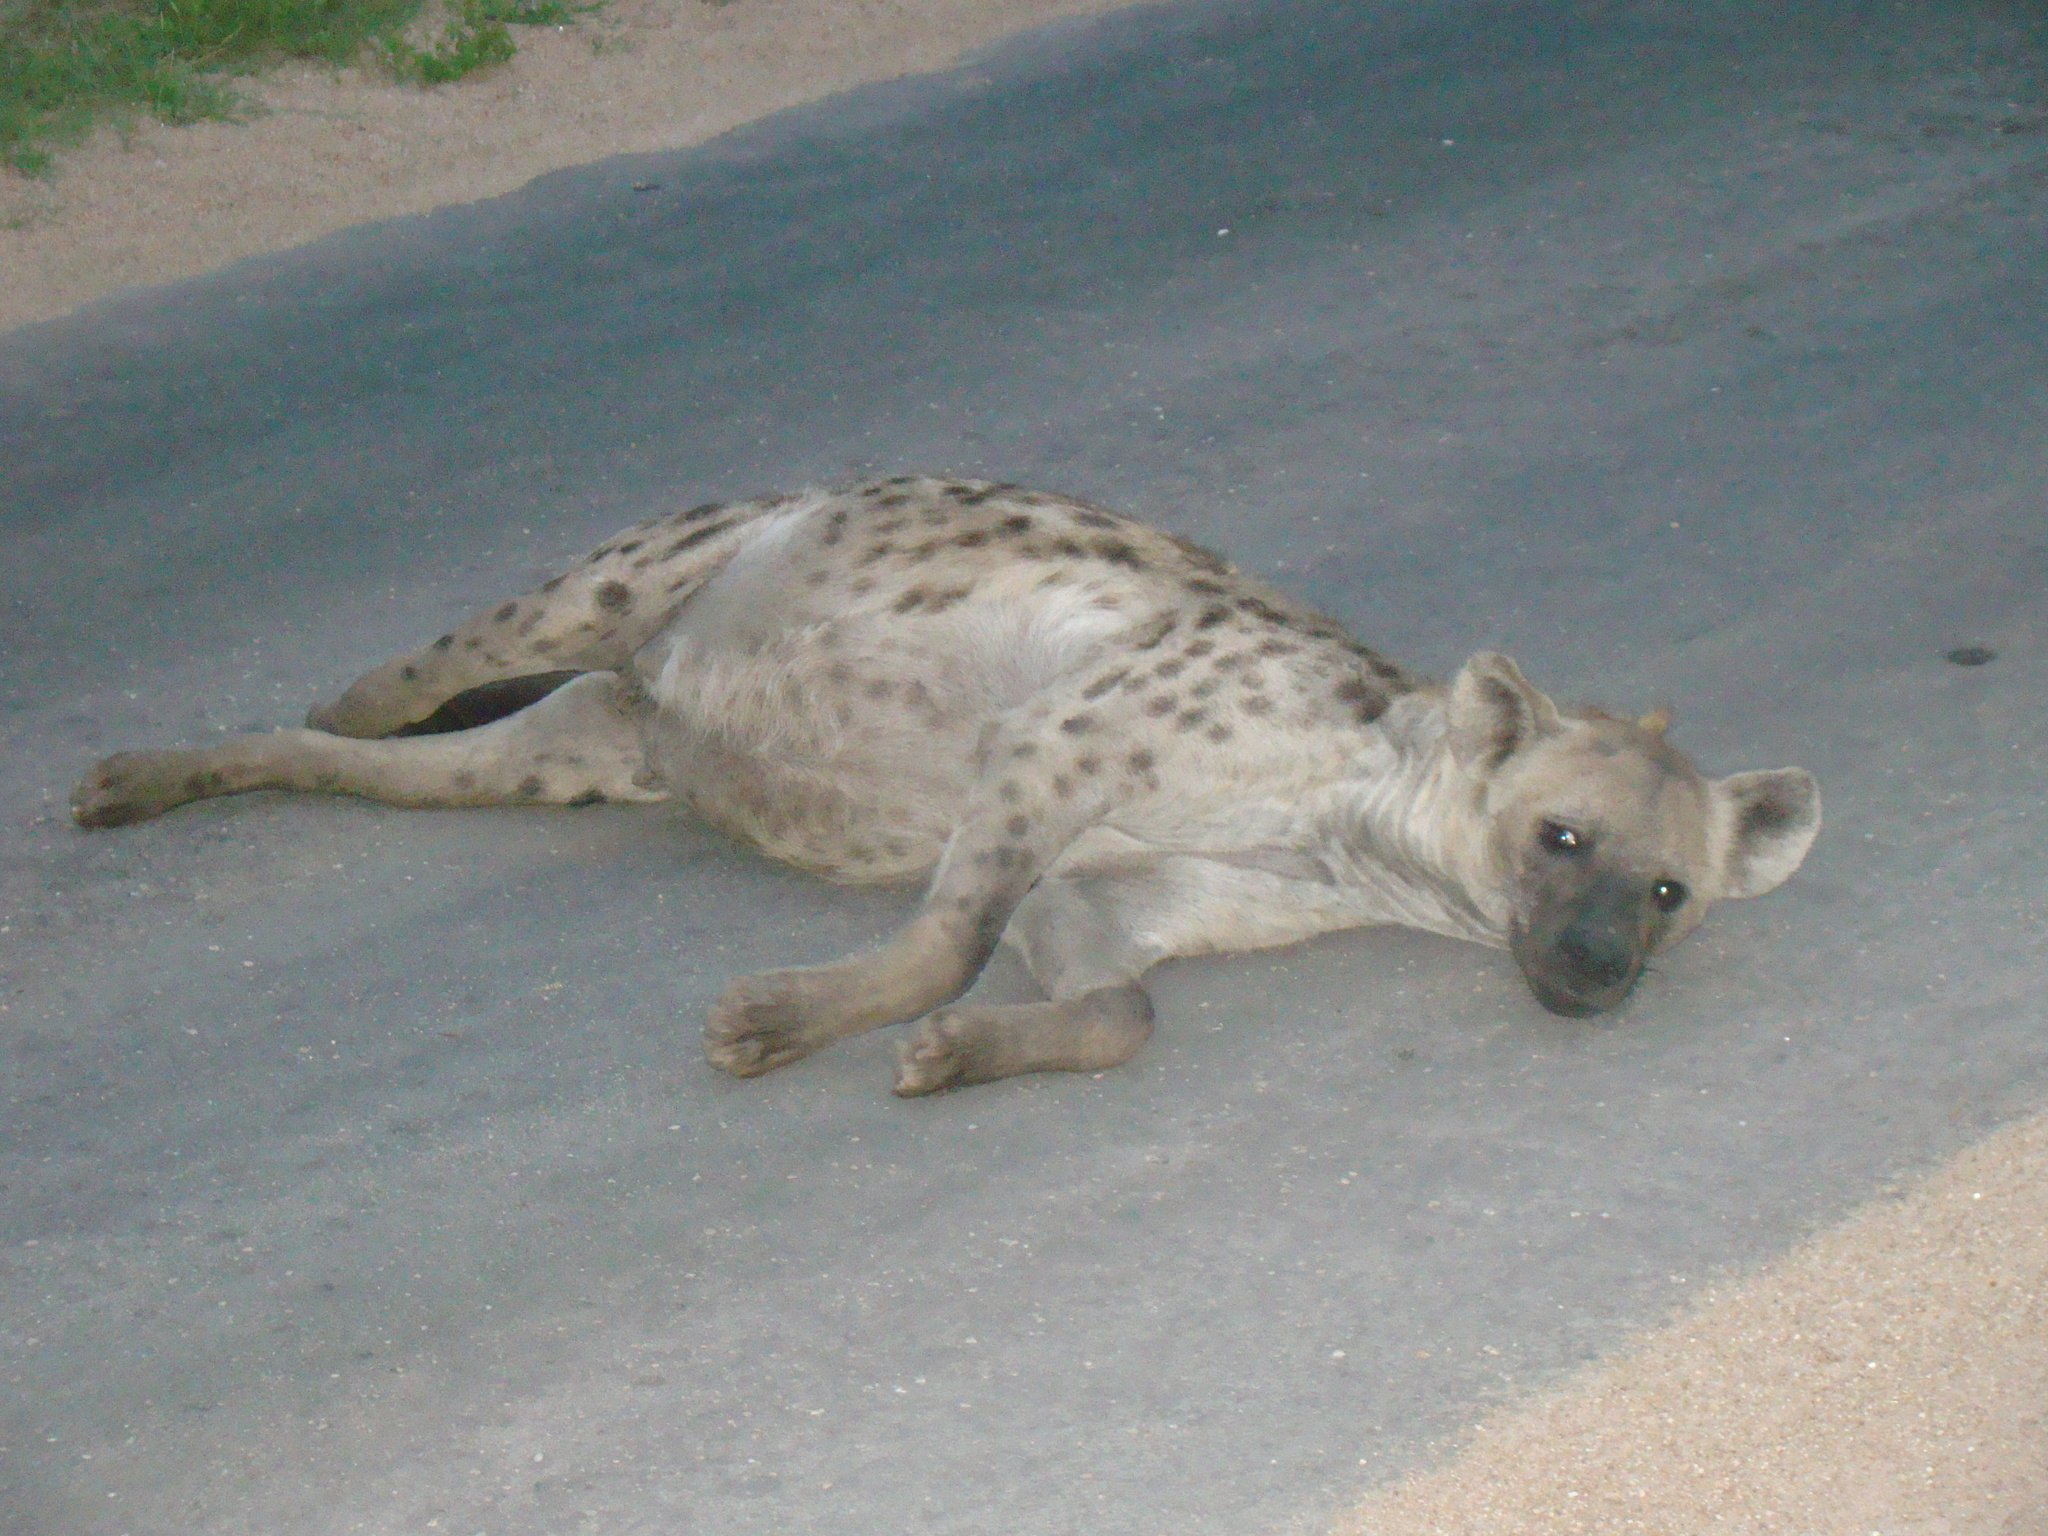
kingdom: Animalia
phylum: Chordata
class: Mammalia
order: Carnivora
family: Hyaenidae
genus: Crocuta
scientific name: Crocuta crocuta
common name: Spotted hyaena
